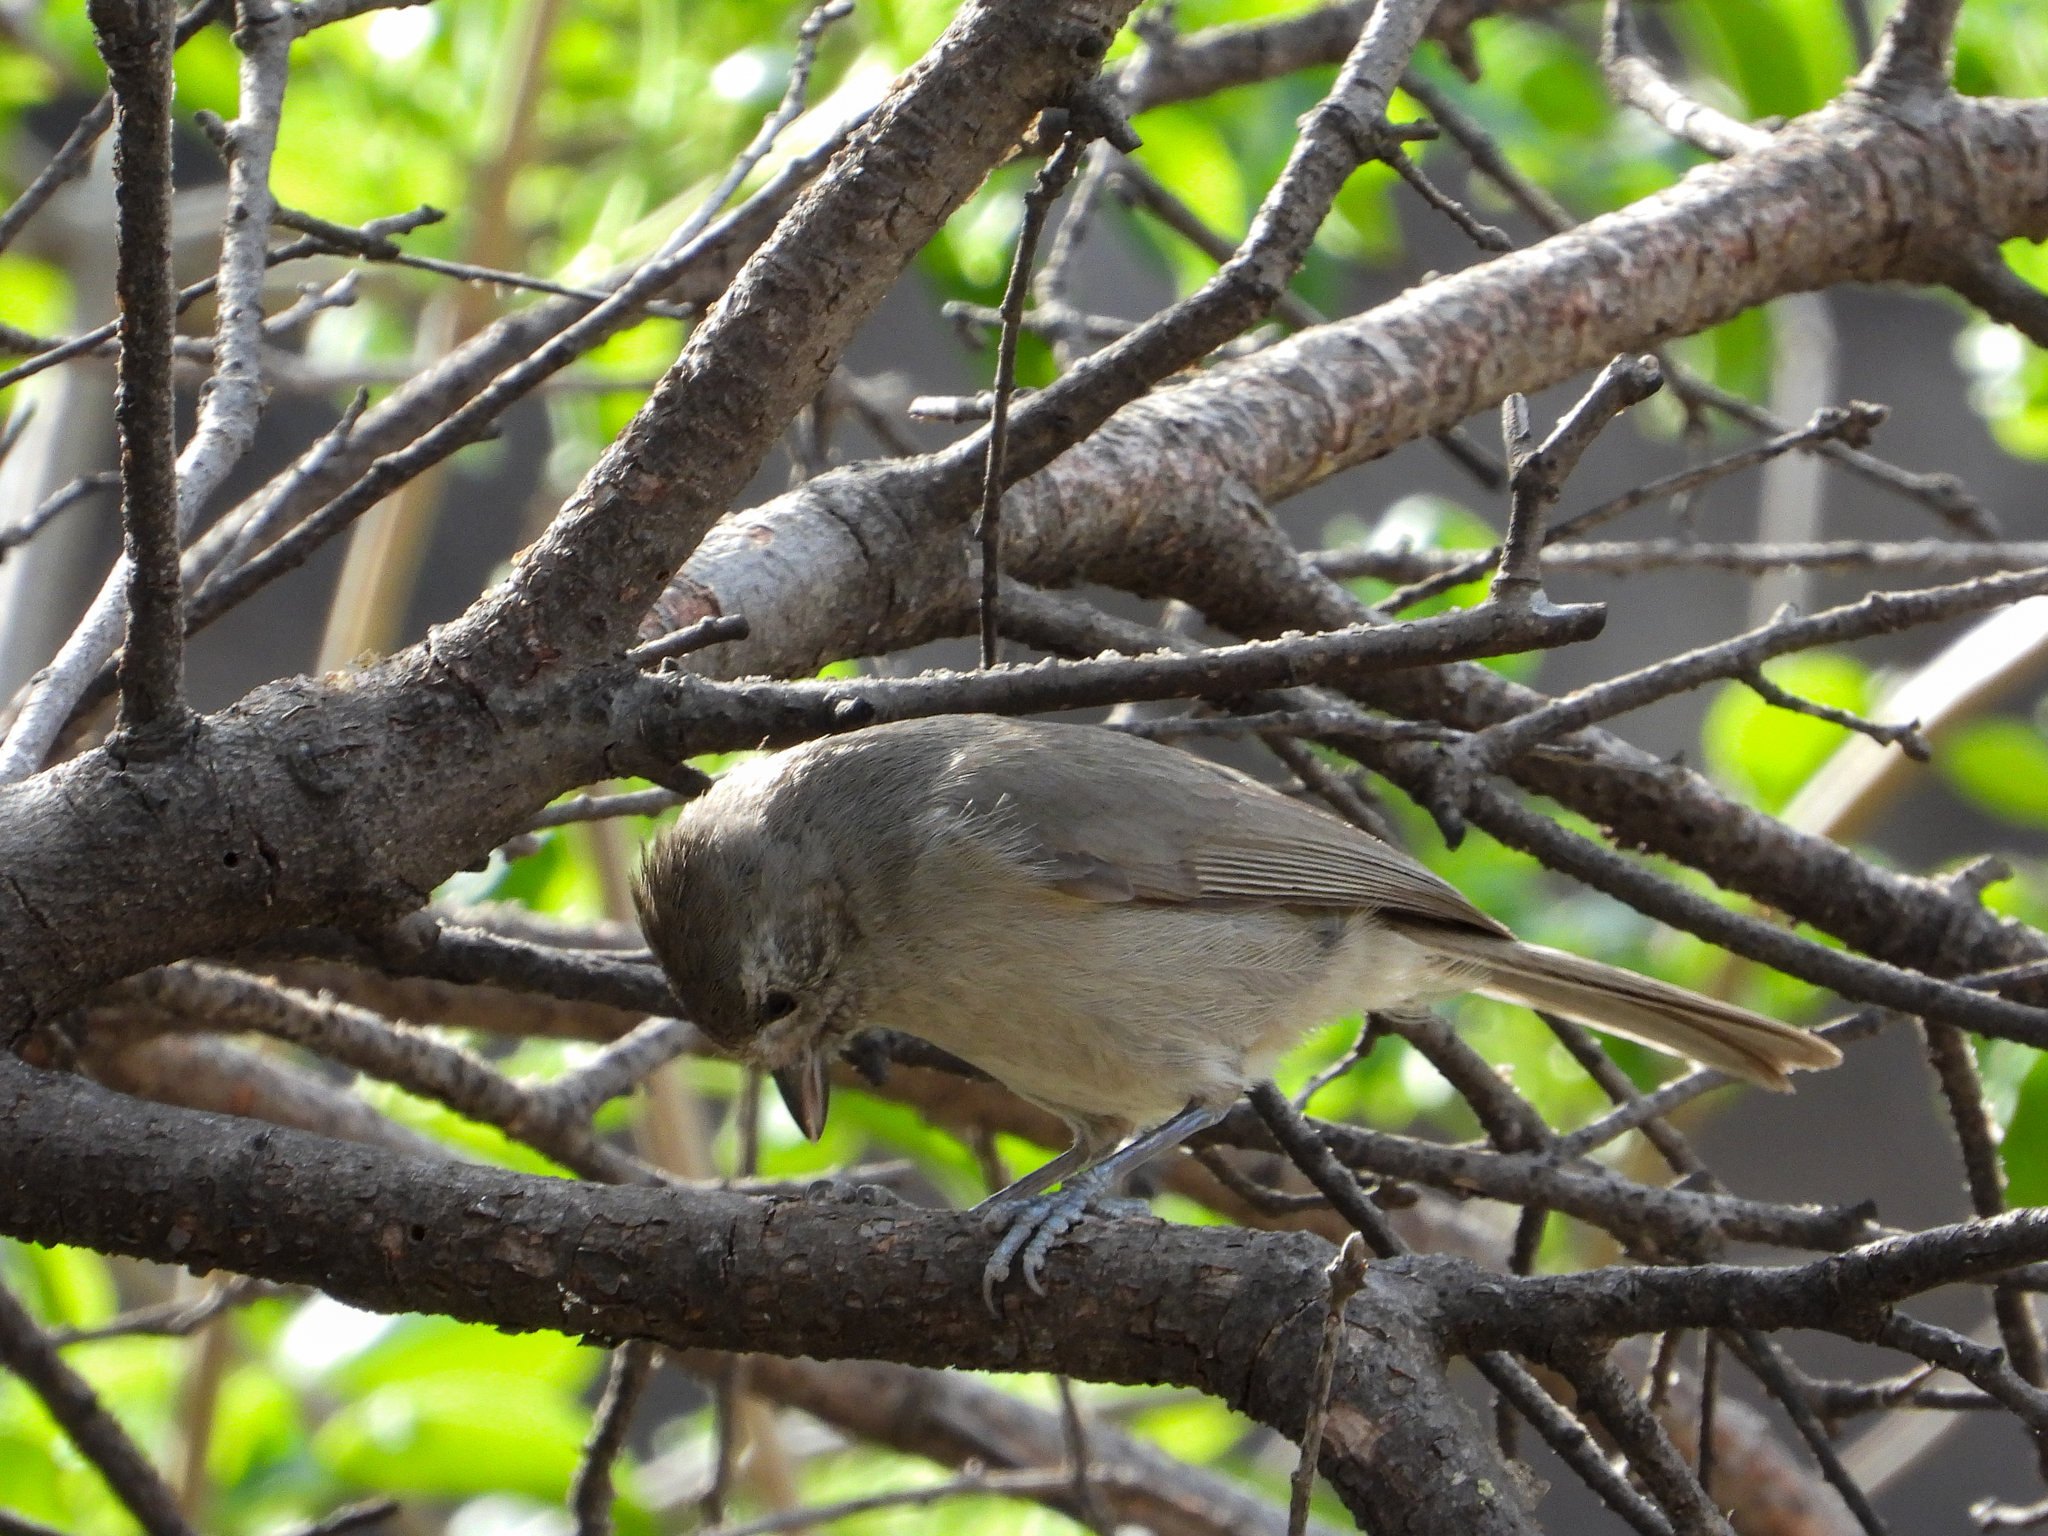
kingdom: Animalia
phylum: Chordata
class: Aves
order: Passeriformes
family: Paridae
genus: Baeolophus
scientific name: Baeolophus inornatus
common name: Oak titmouse
